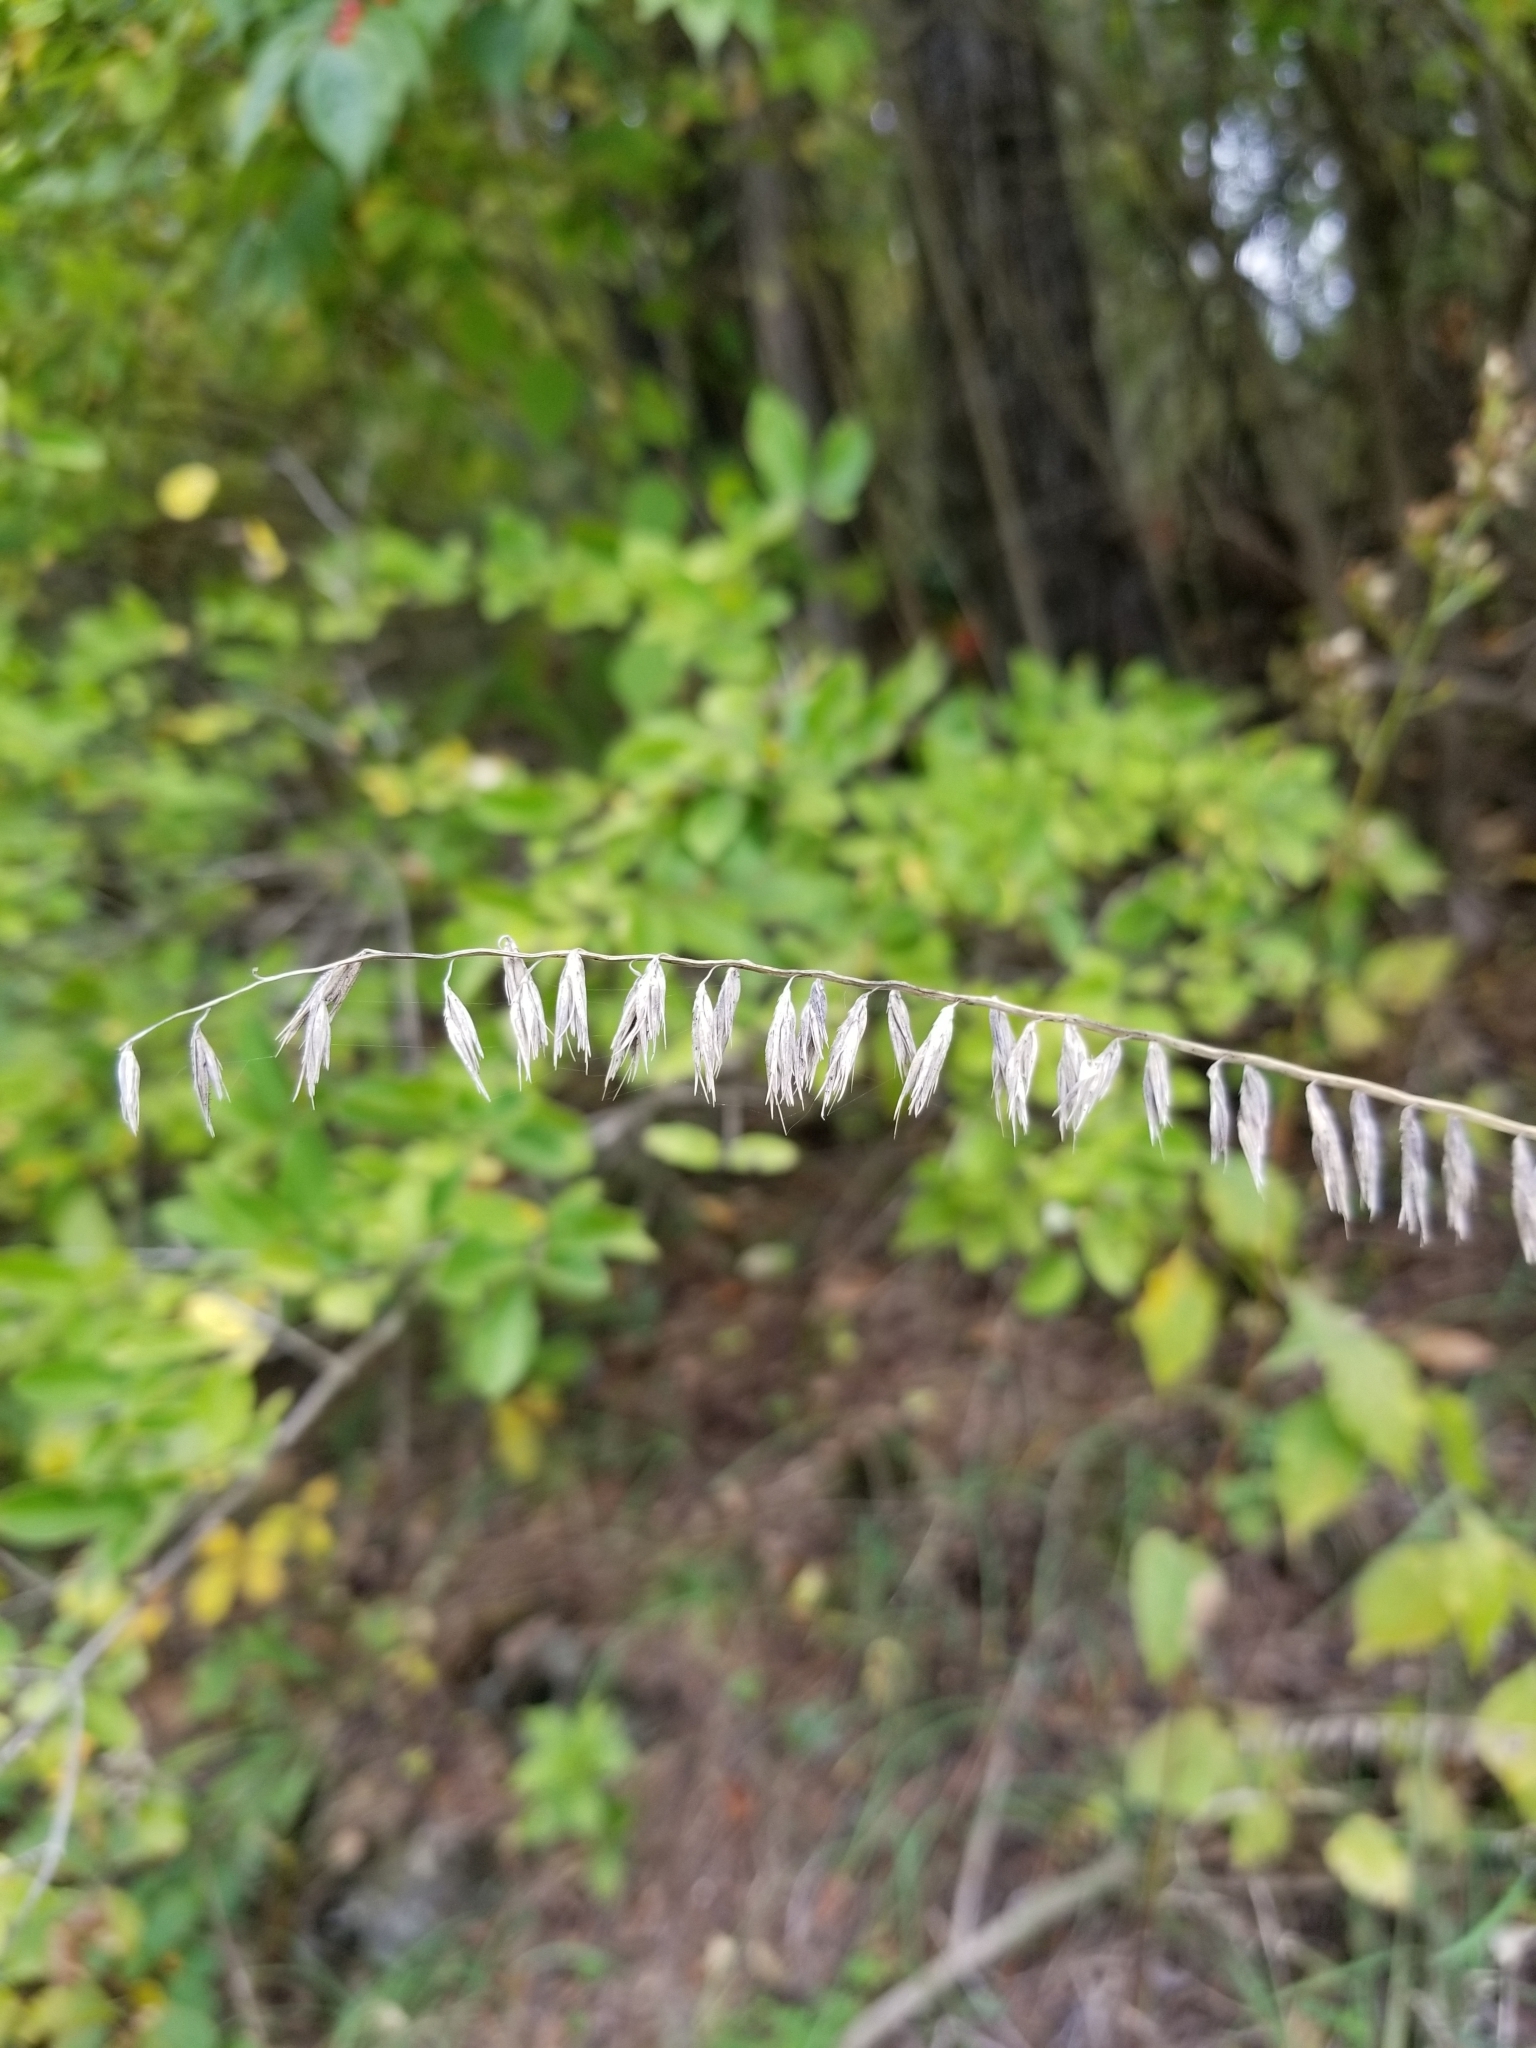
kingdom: Plantae
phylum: Tracheophyta
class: Liliopsida
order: Poales
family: Poaceae
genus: Bouteloua
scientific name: Bouteloua curtipendula
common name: Side-oats grama
